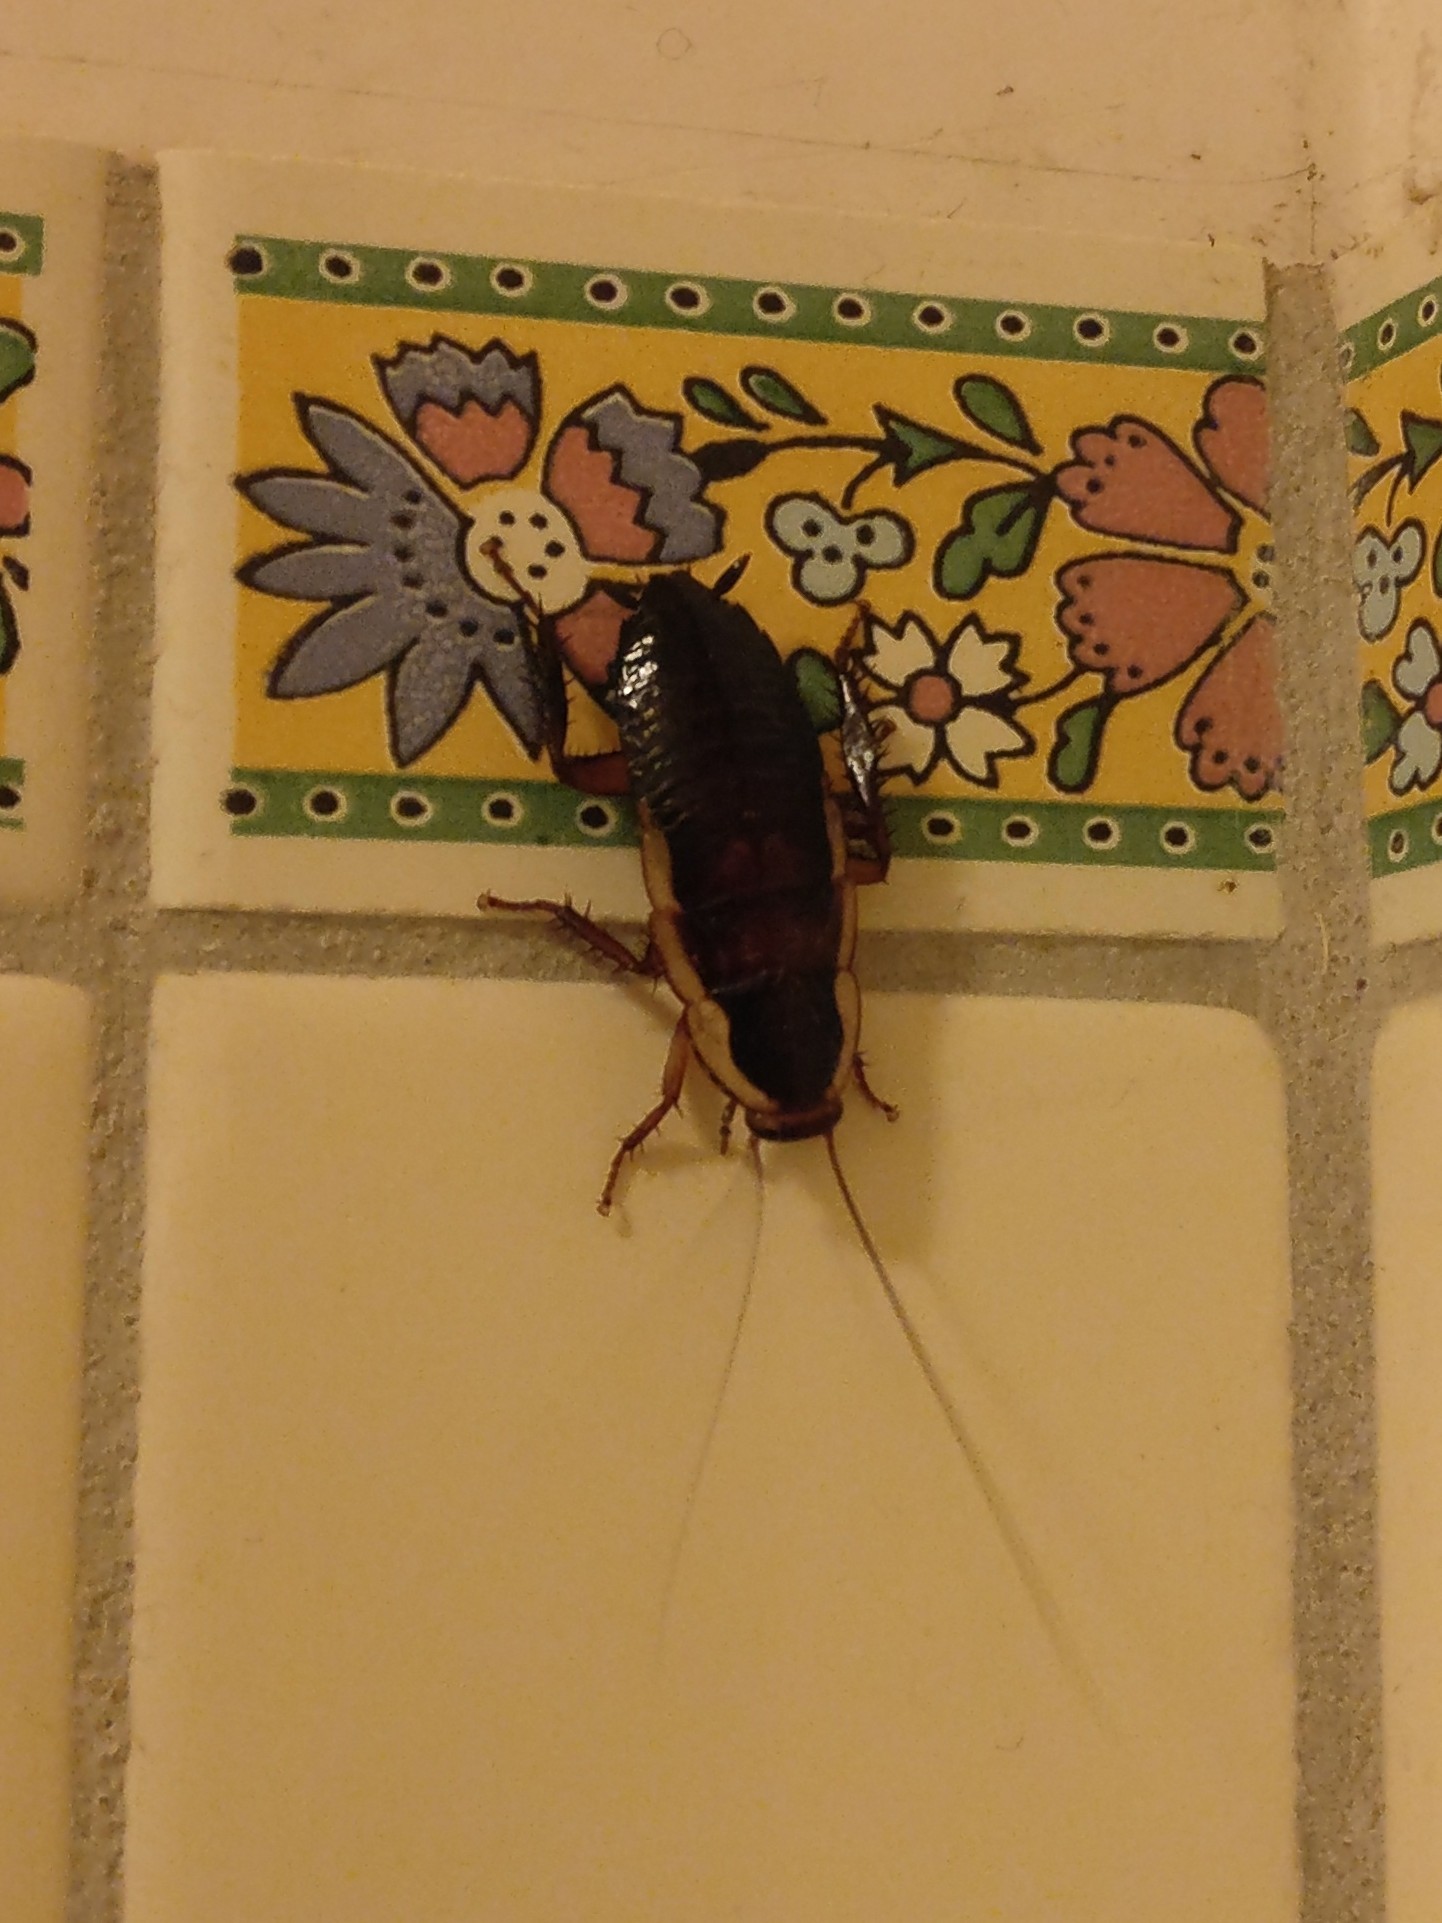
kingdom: Animalia
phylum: Arthropoda
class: Insecta
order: Blattodea
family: Blattidae
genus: Drymaplaneta
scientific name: Drymaplaneta semivitta
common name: Gisborne cockroach
